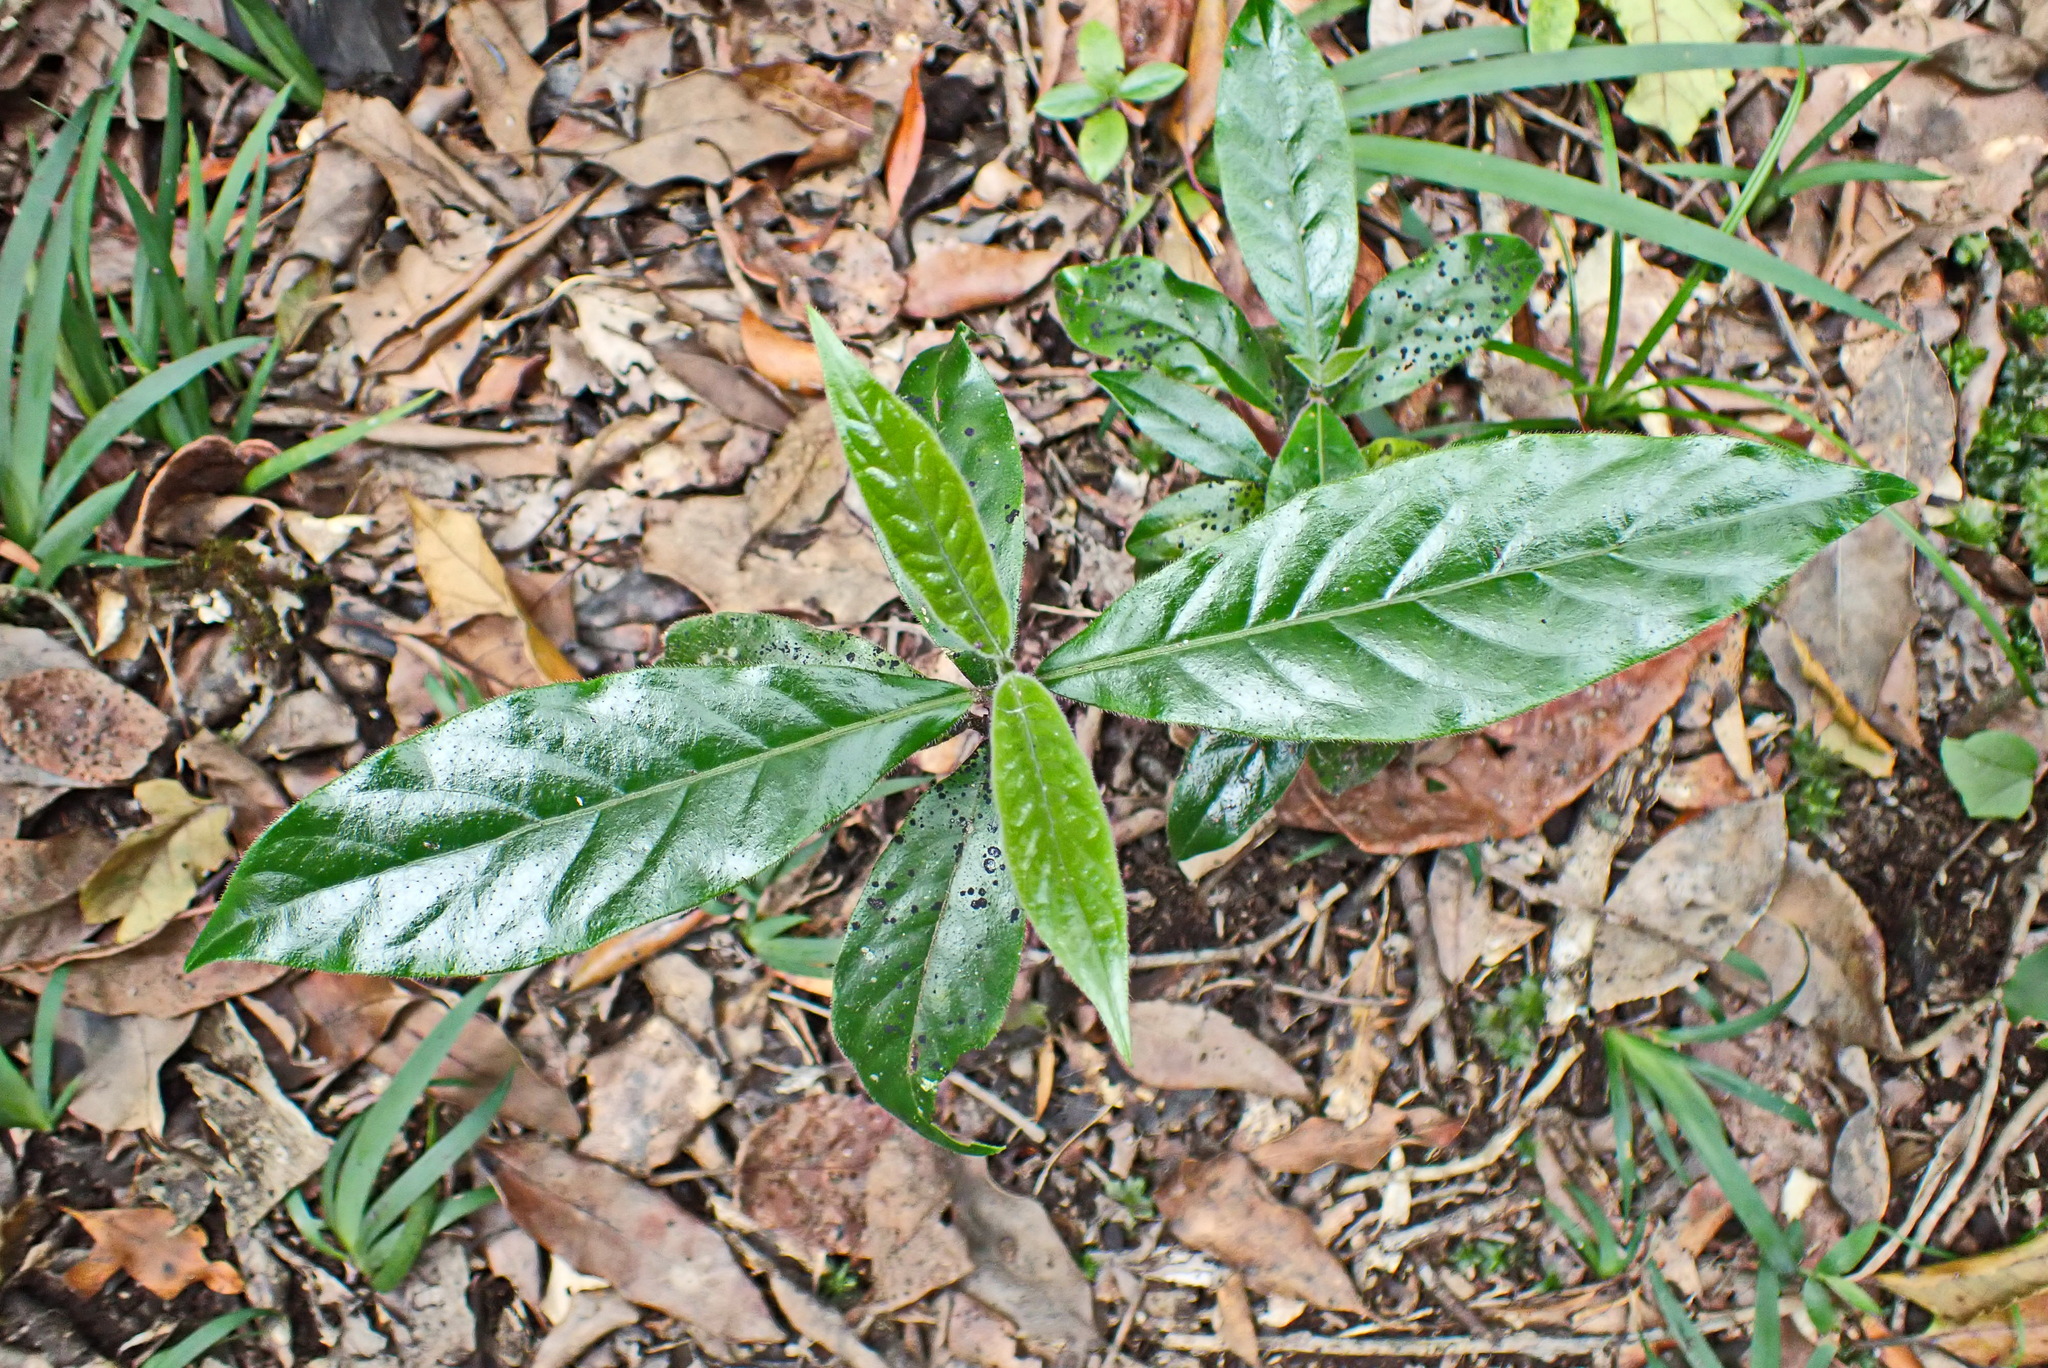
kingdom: Plantae
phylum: Tracheophyta
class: Magnoliopsida
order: Gentianales
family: Rubiaceae
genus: Rothmannia
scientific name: Rothmannia capensis
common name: Cape gardenia
